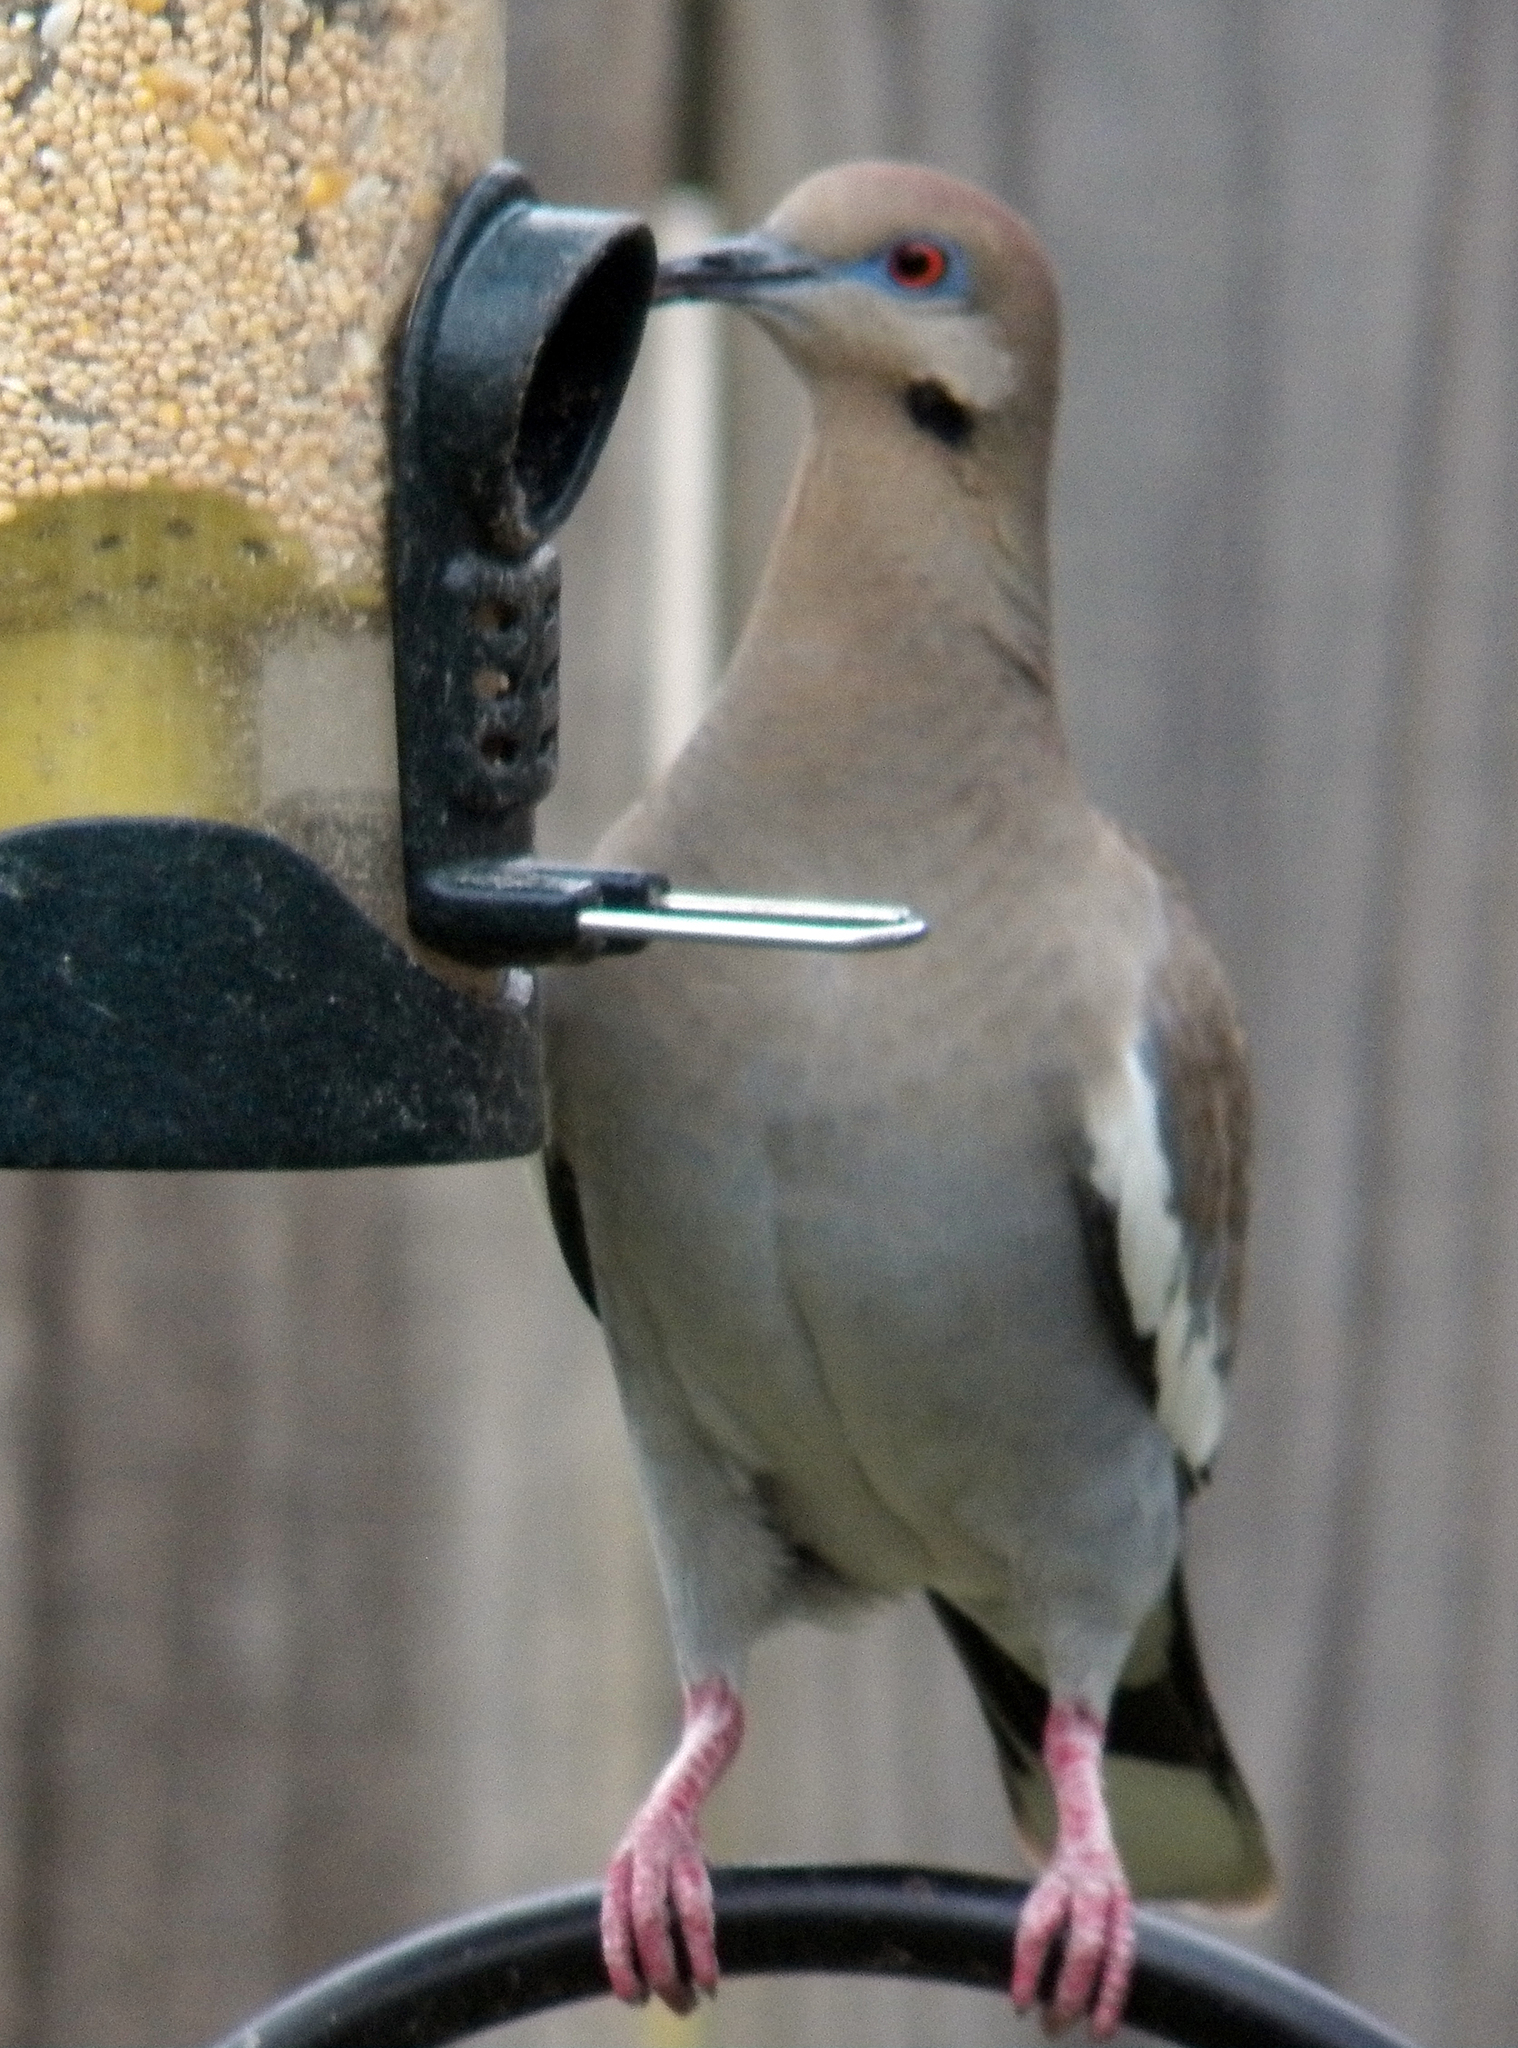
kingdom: Animalia
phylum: Chordata
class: Aves
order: Columbiformes
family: Columbidae
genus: Zenaida
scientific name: Zenaida asiatica
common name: White-winged dove
